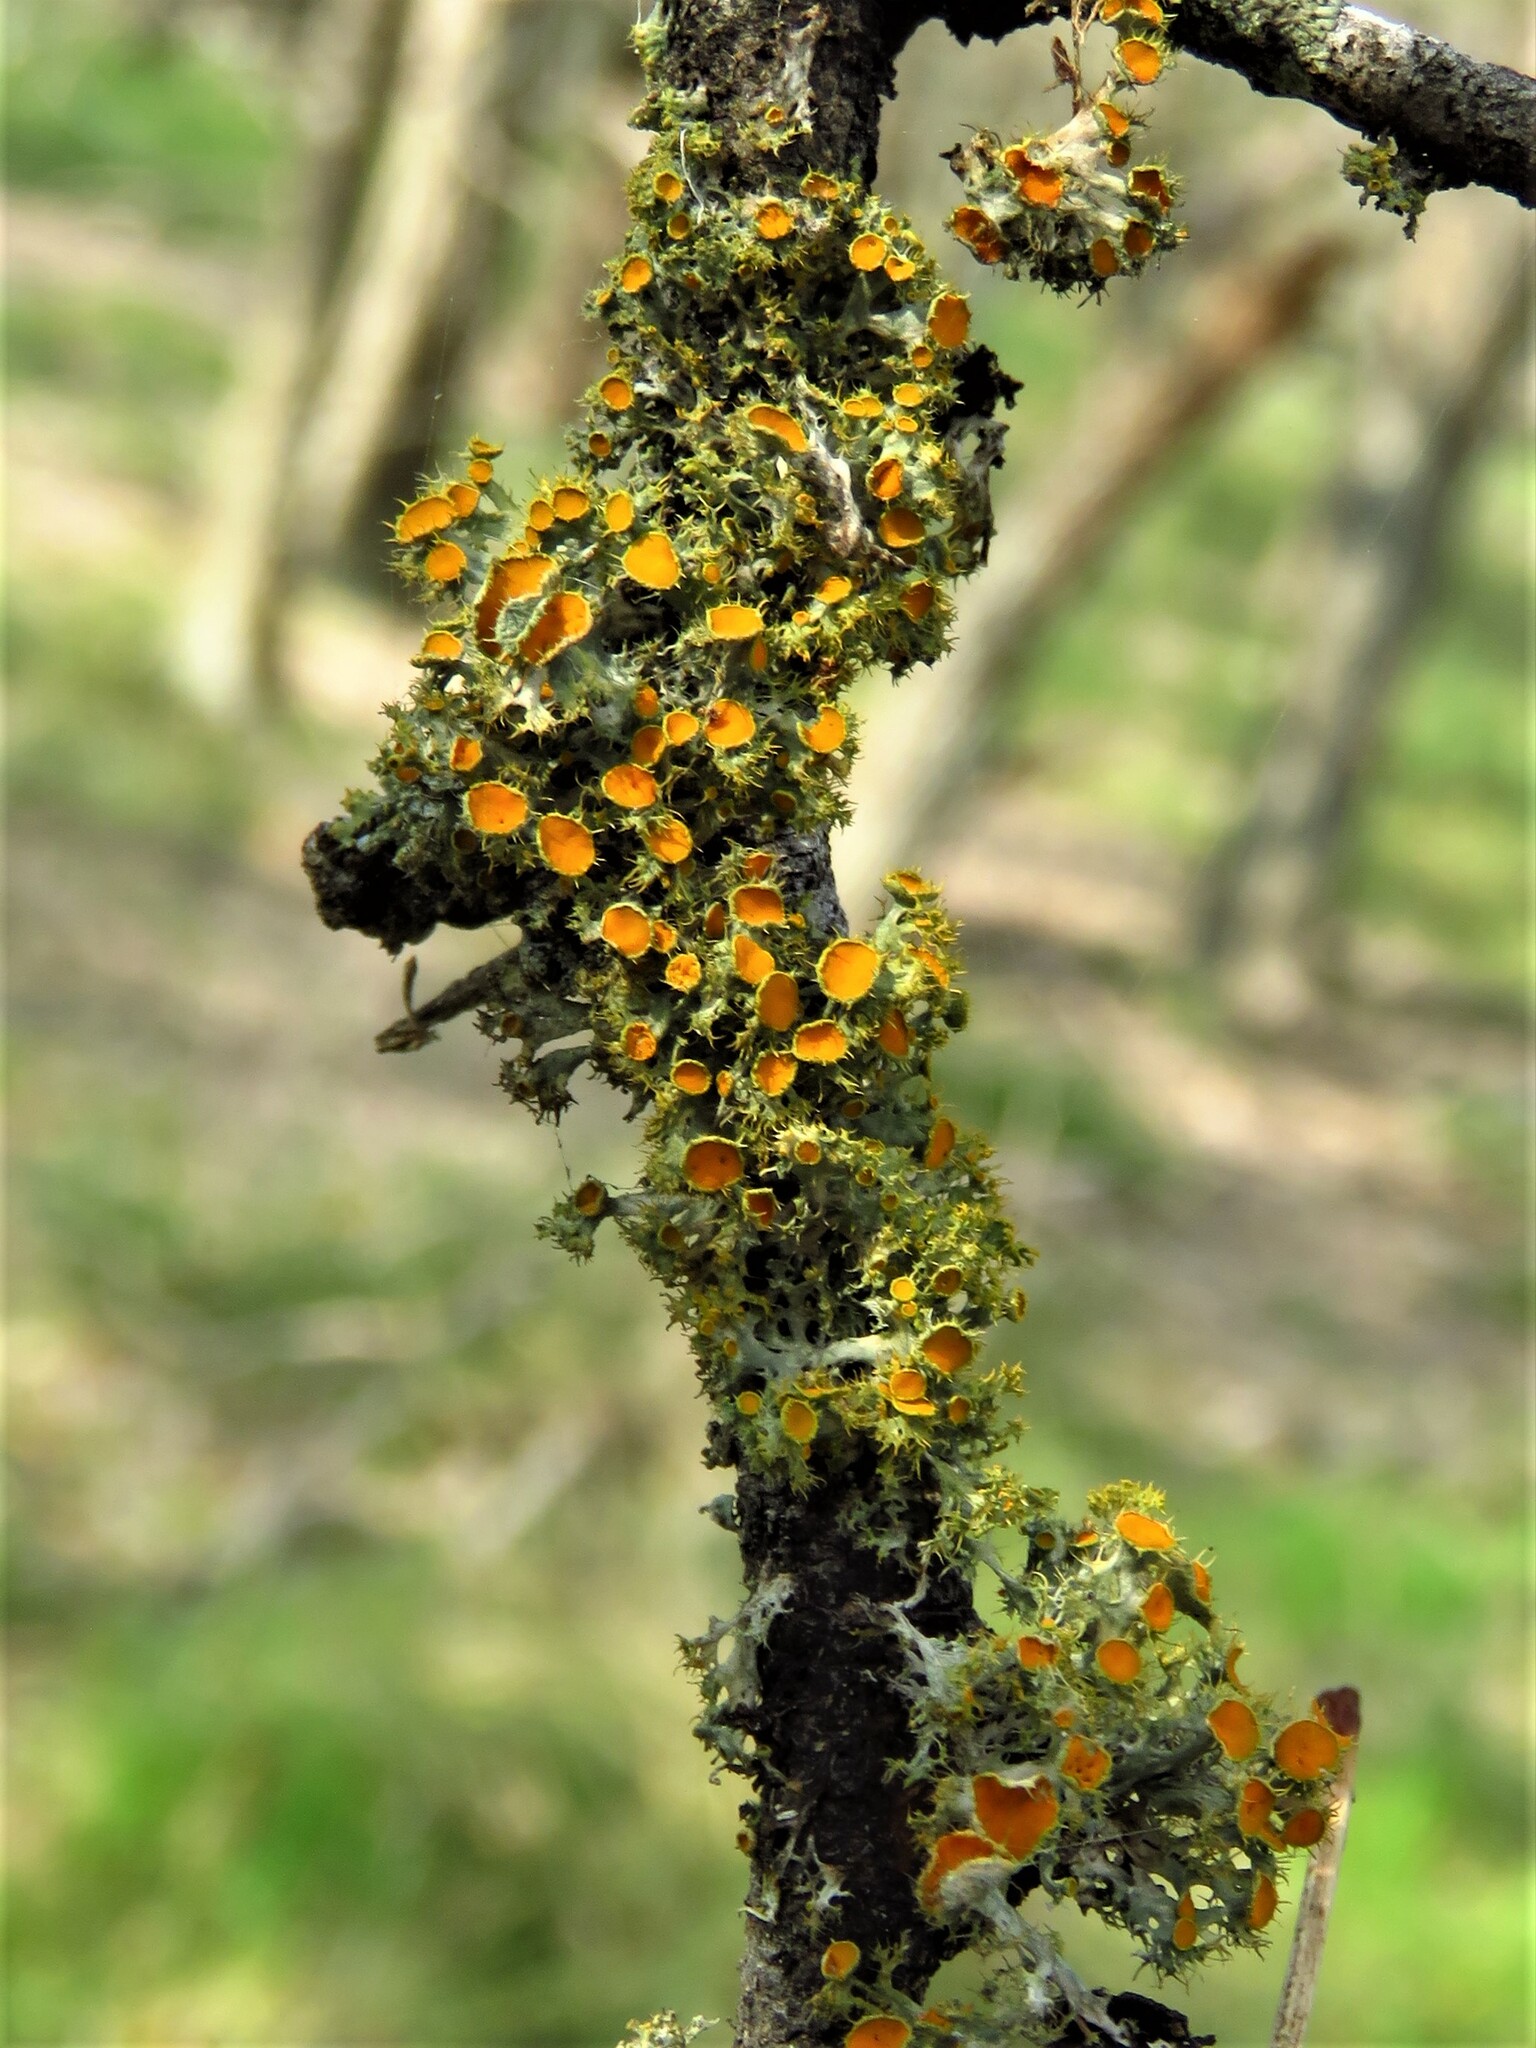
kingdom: Fungi
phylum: Ascomycota
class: Lecanoromycetes
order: Teloschistales
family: Teloschistaceae
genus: Niorma
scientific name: Niorma chrysophthalma
